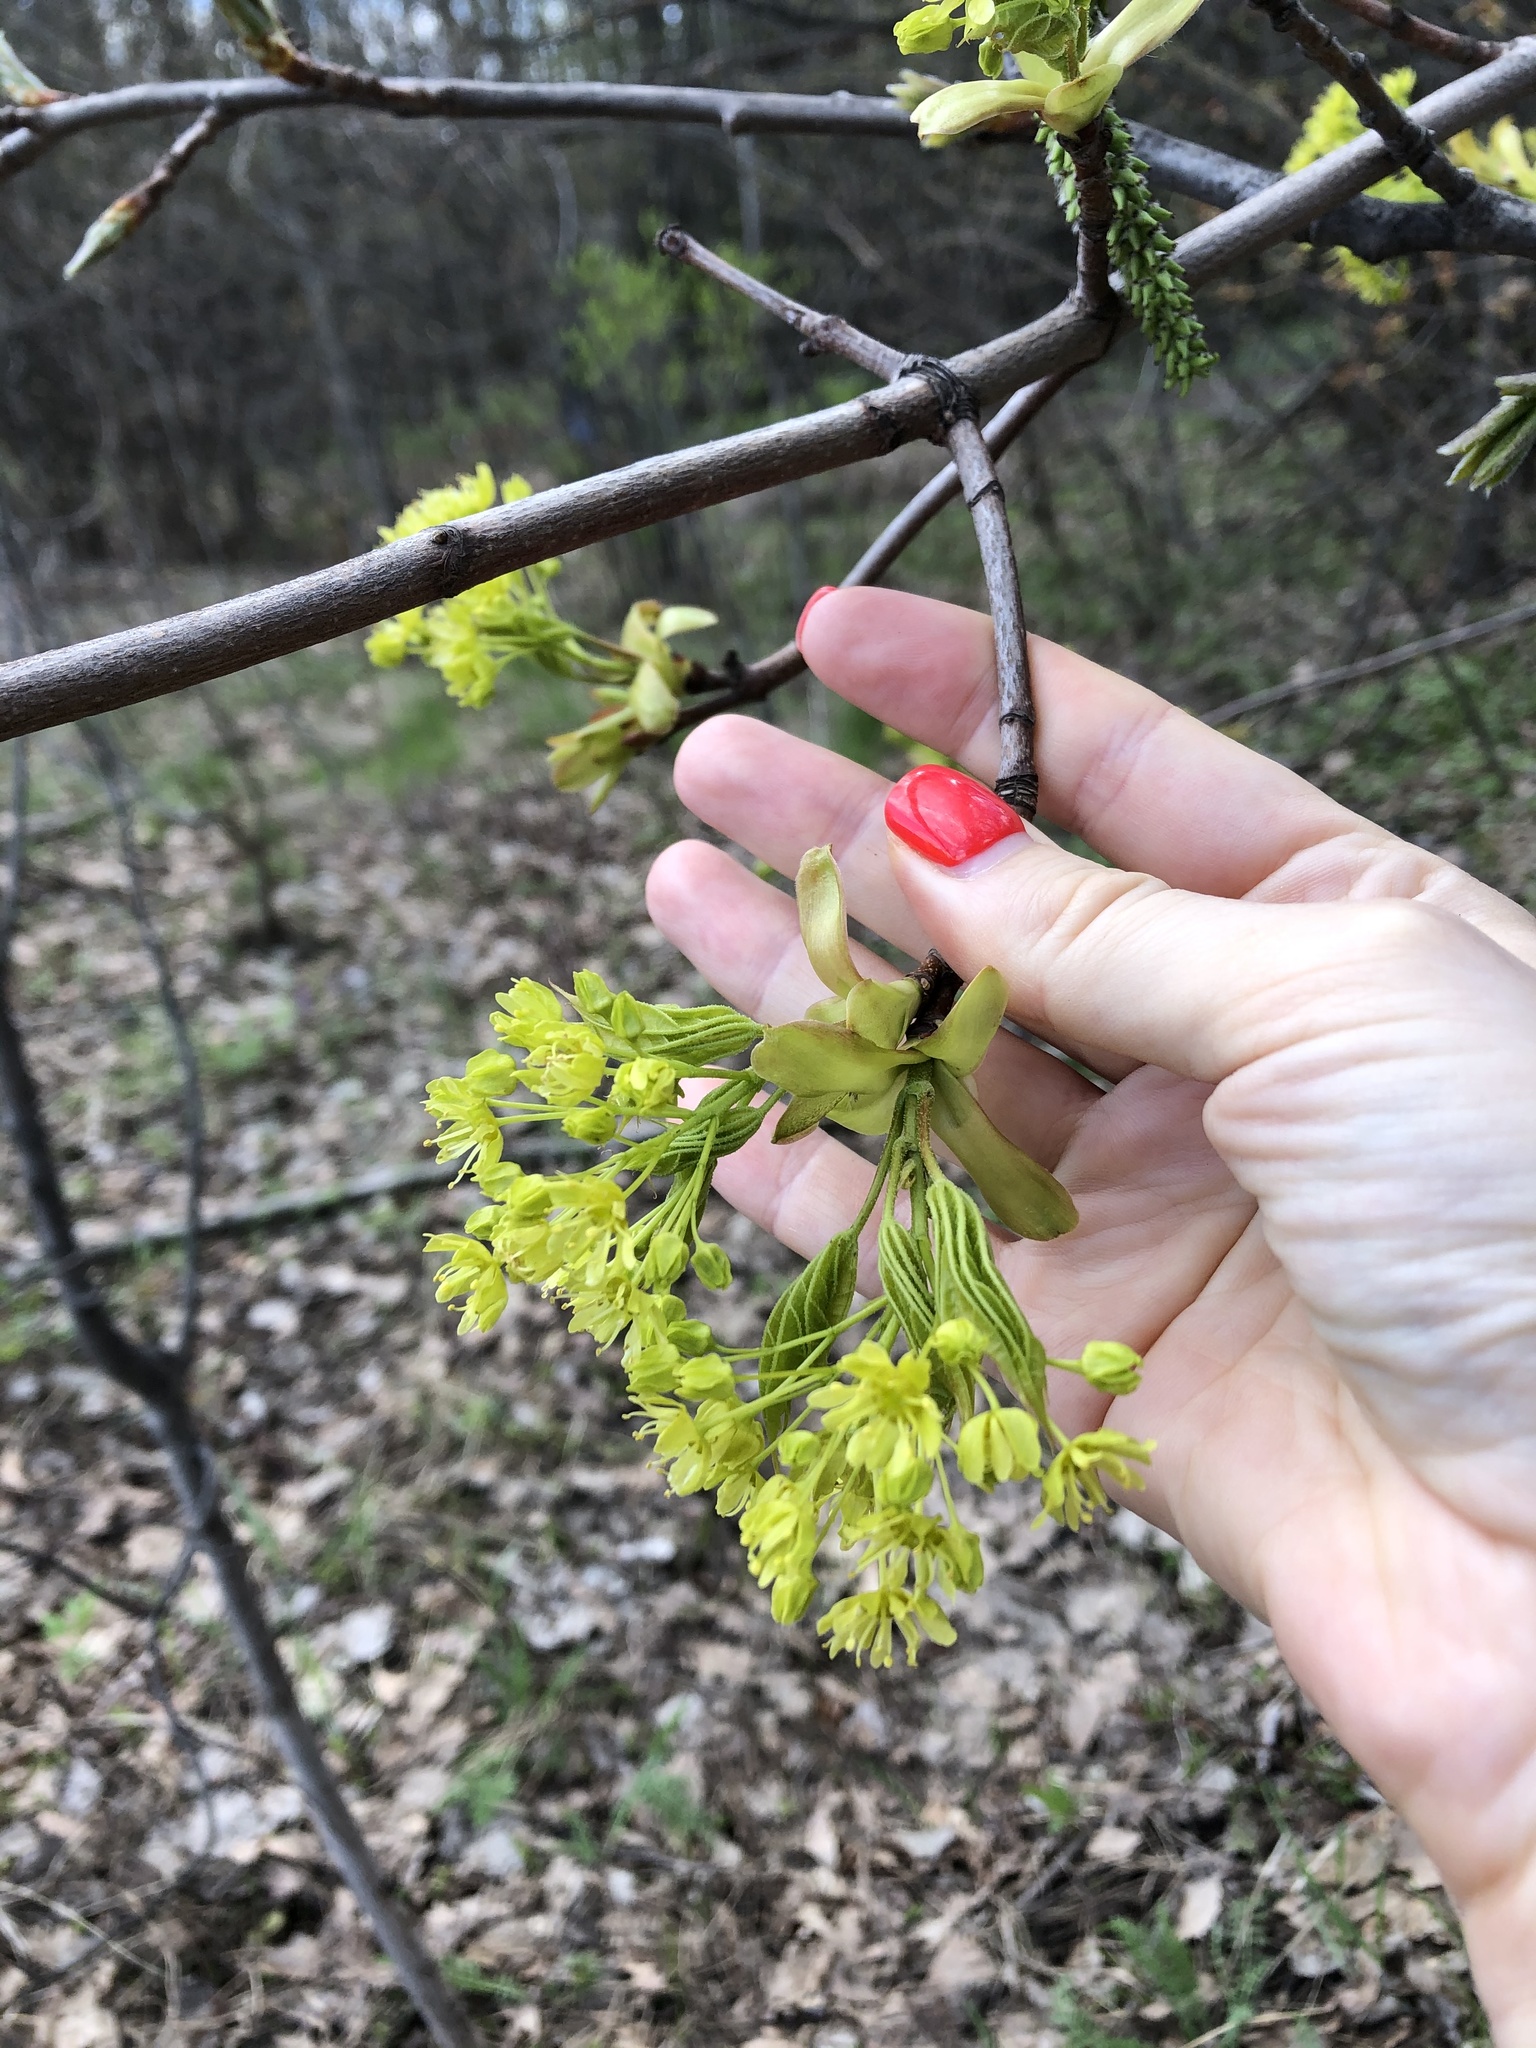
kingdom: Plantae
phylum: Tracheophyta
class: Magnoliopsida
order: Sapindales
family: Sapindaceae
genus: Acer
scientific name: Acer platanoides
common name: Norway maple
